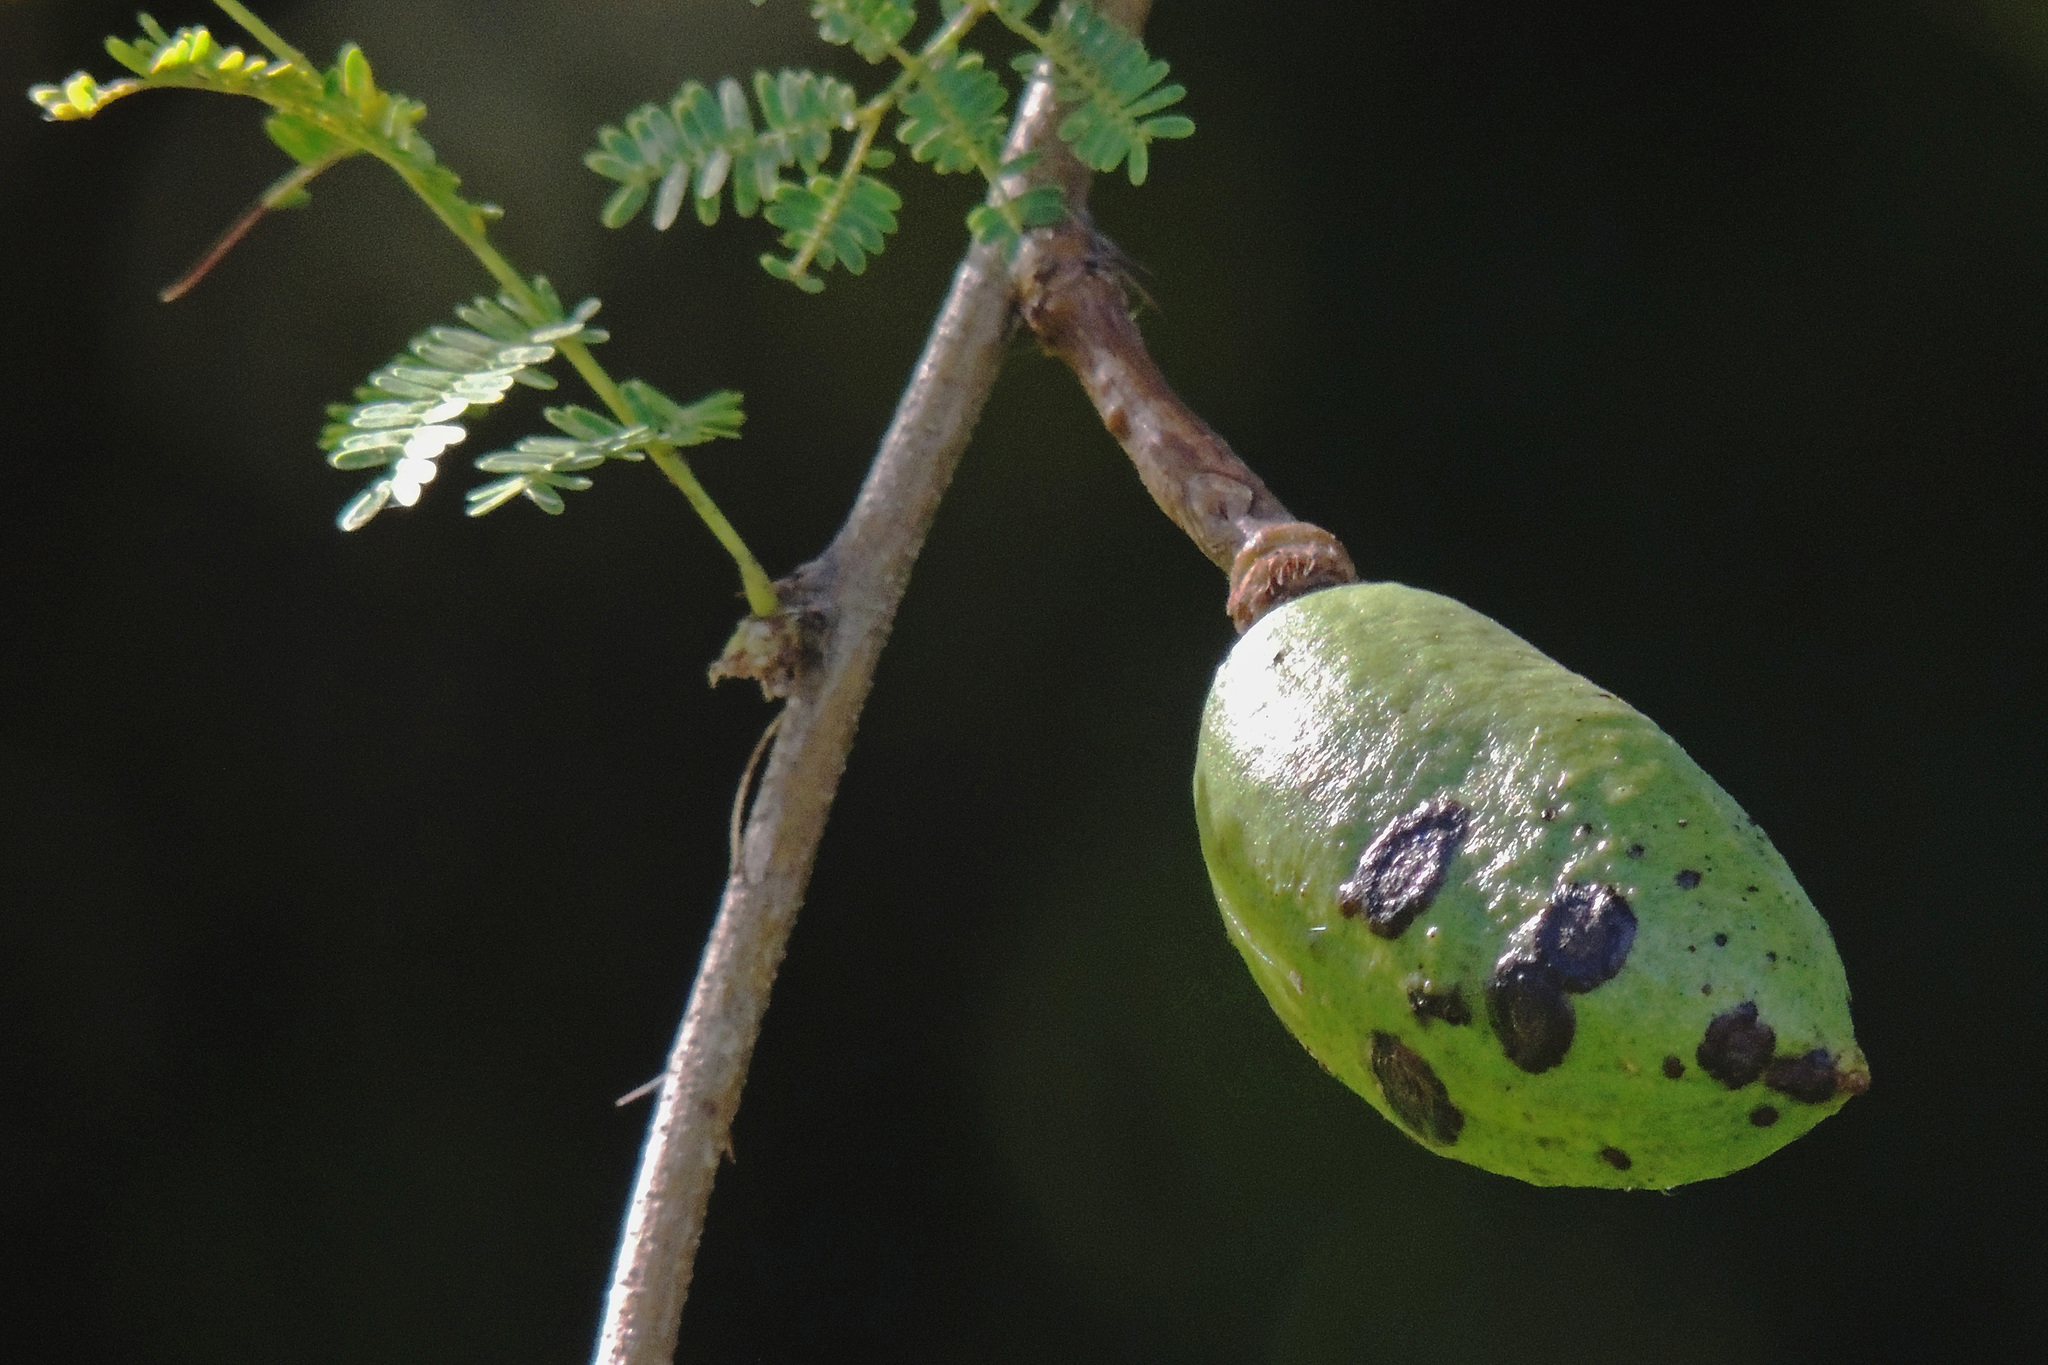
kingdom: Plantae
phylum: Tracheophyta
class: Magnoliopsida
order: Fabales
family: Fabaceae
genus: Vachellia
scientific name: Vachellia caven
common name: Roman cassie
